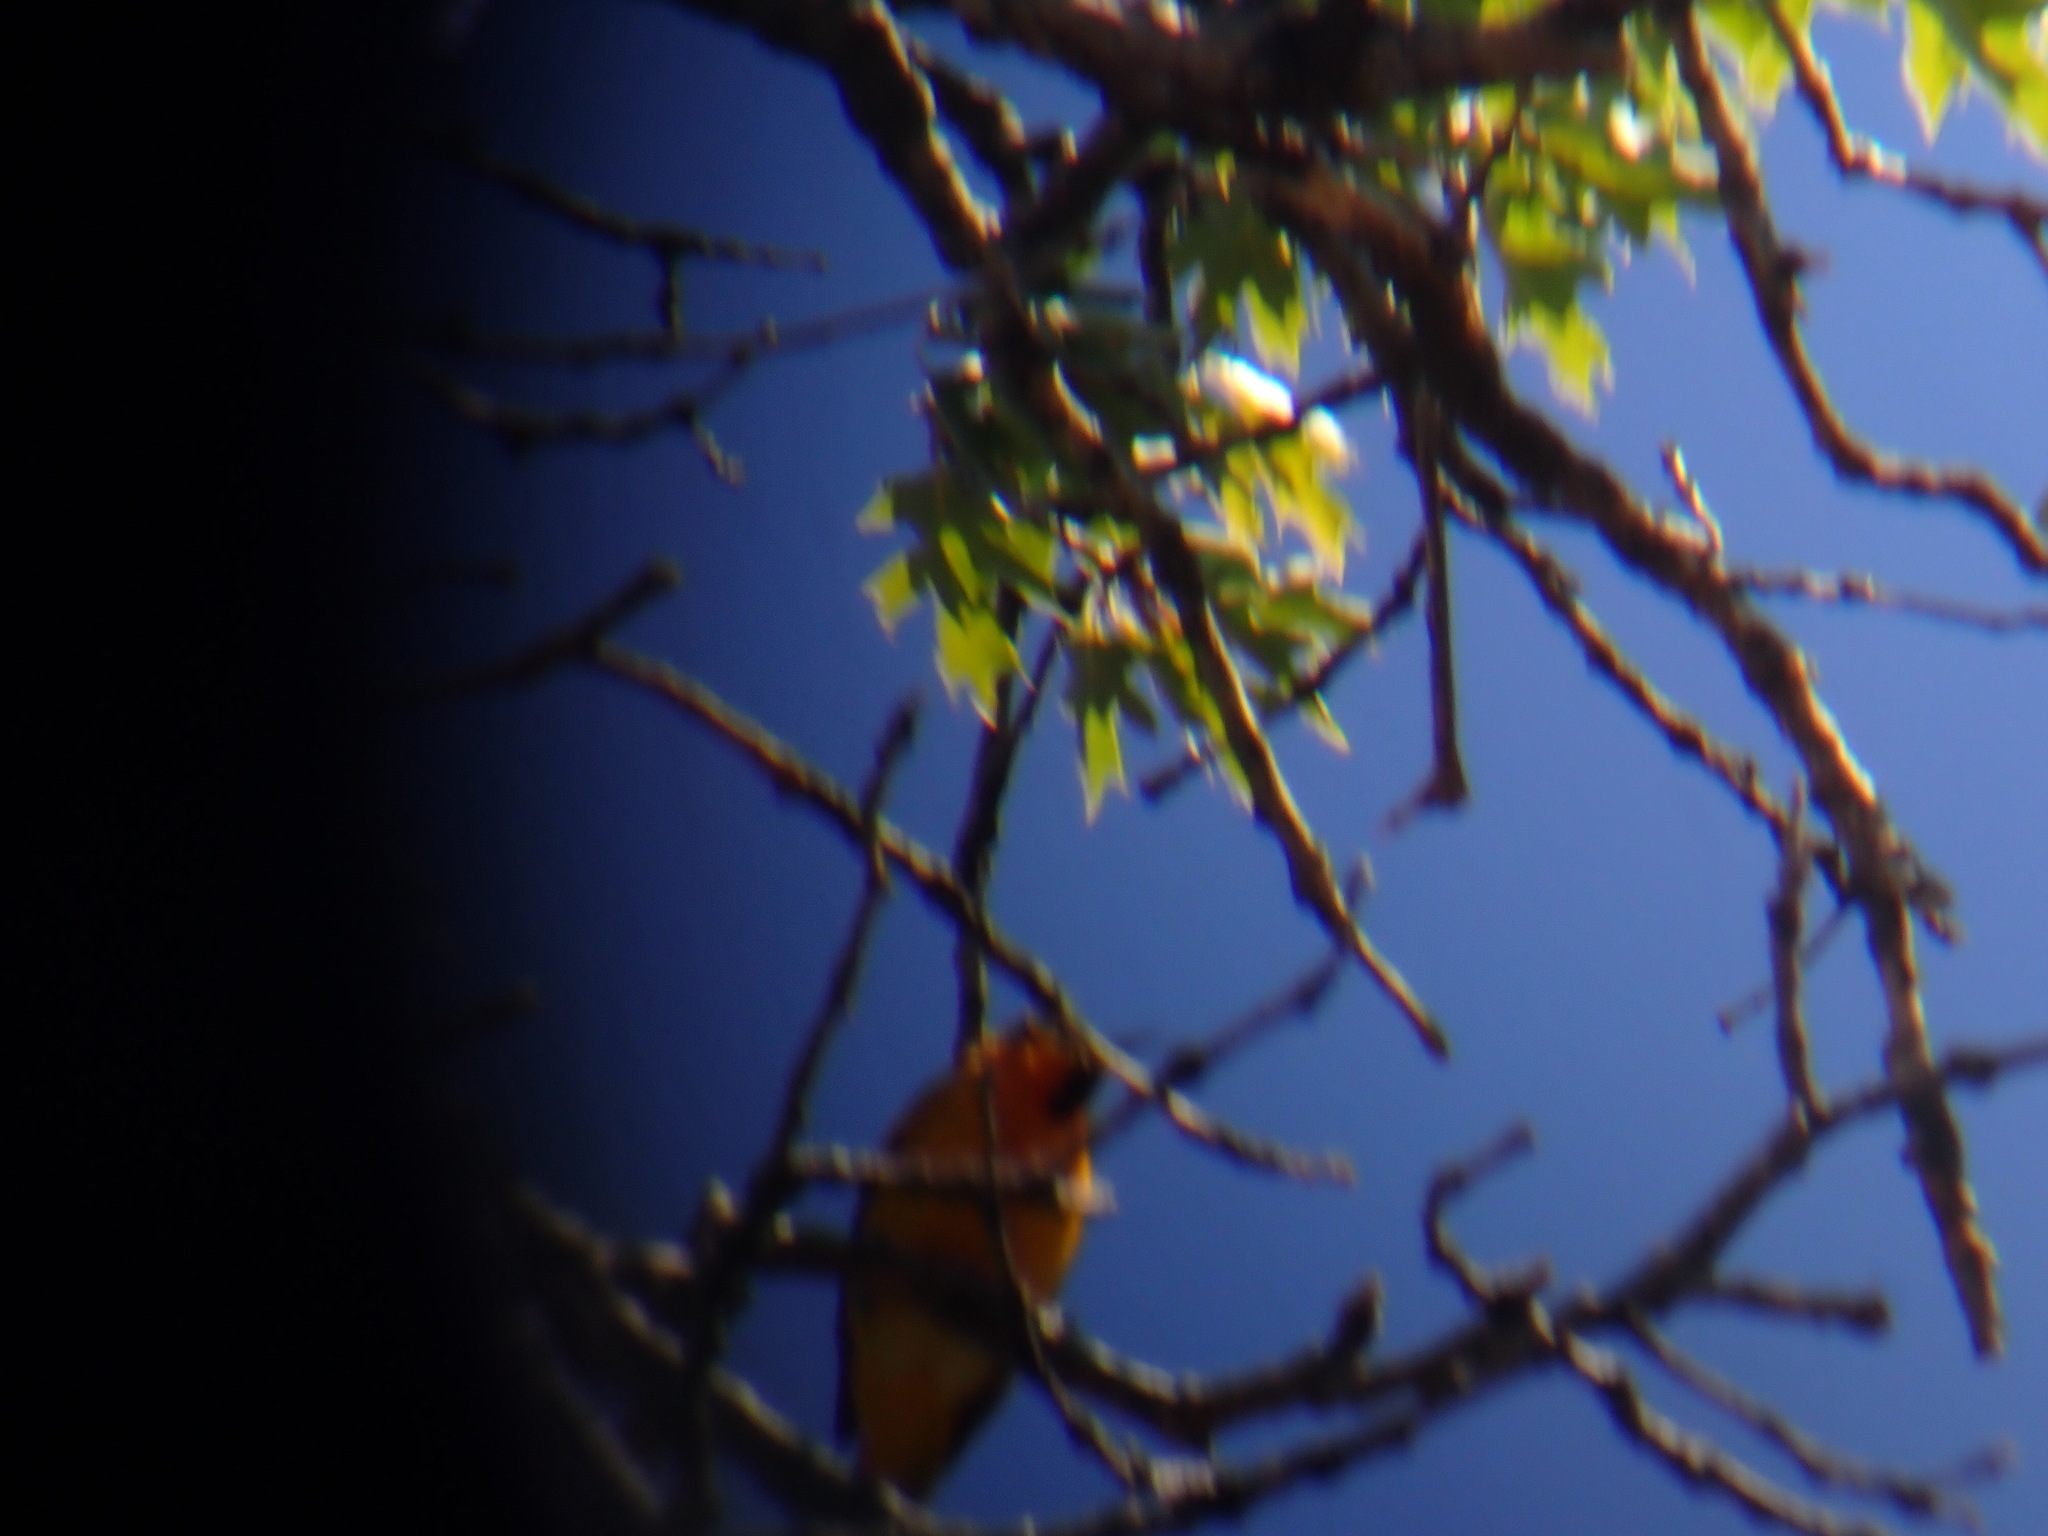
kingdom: Animalia
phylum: Chordata
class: Aves
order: Passeriformes
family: Icteridae
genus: Icterus
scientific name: Icterus bullockii
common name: Bullock's oriole
